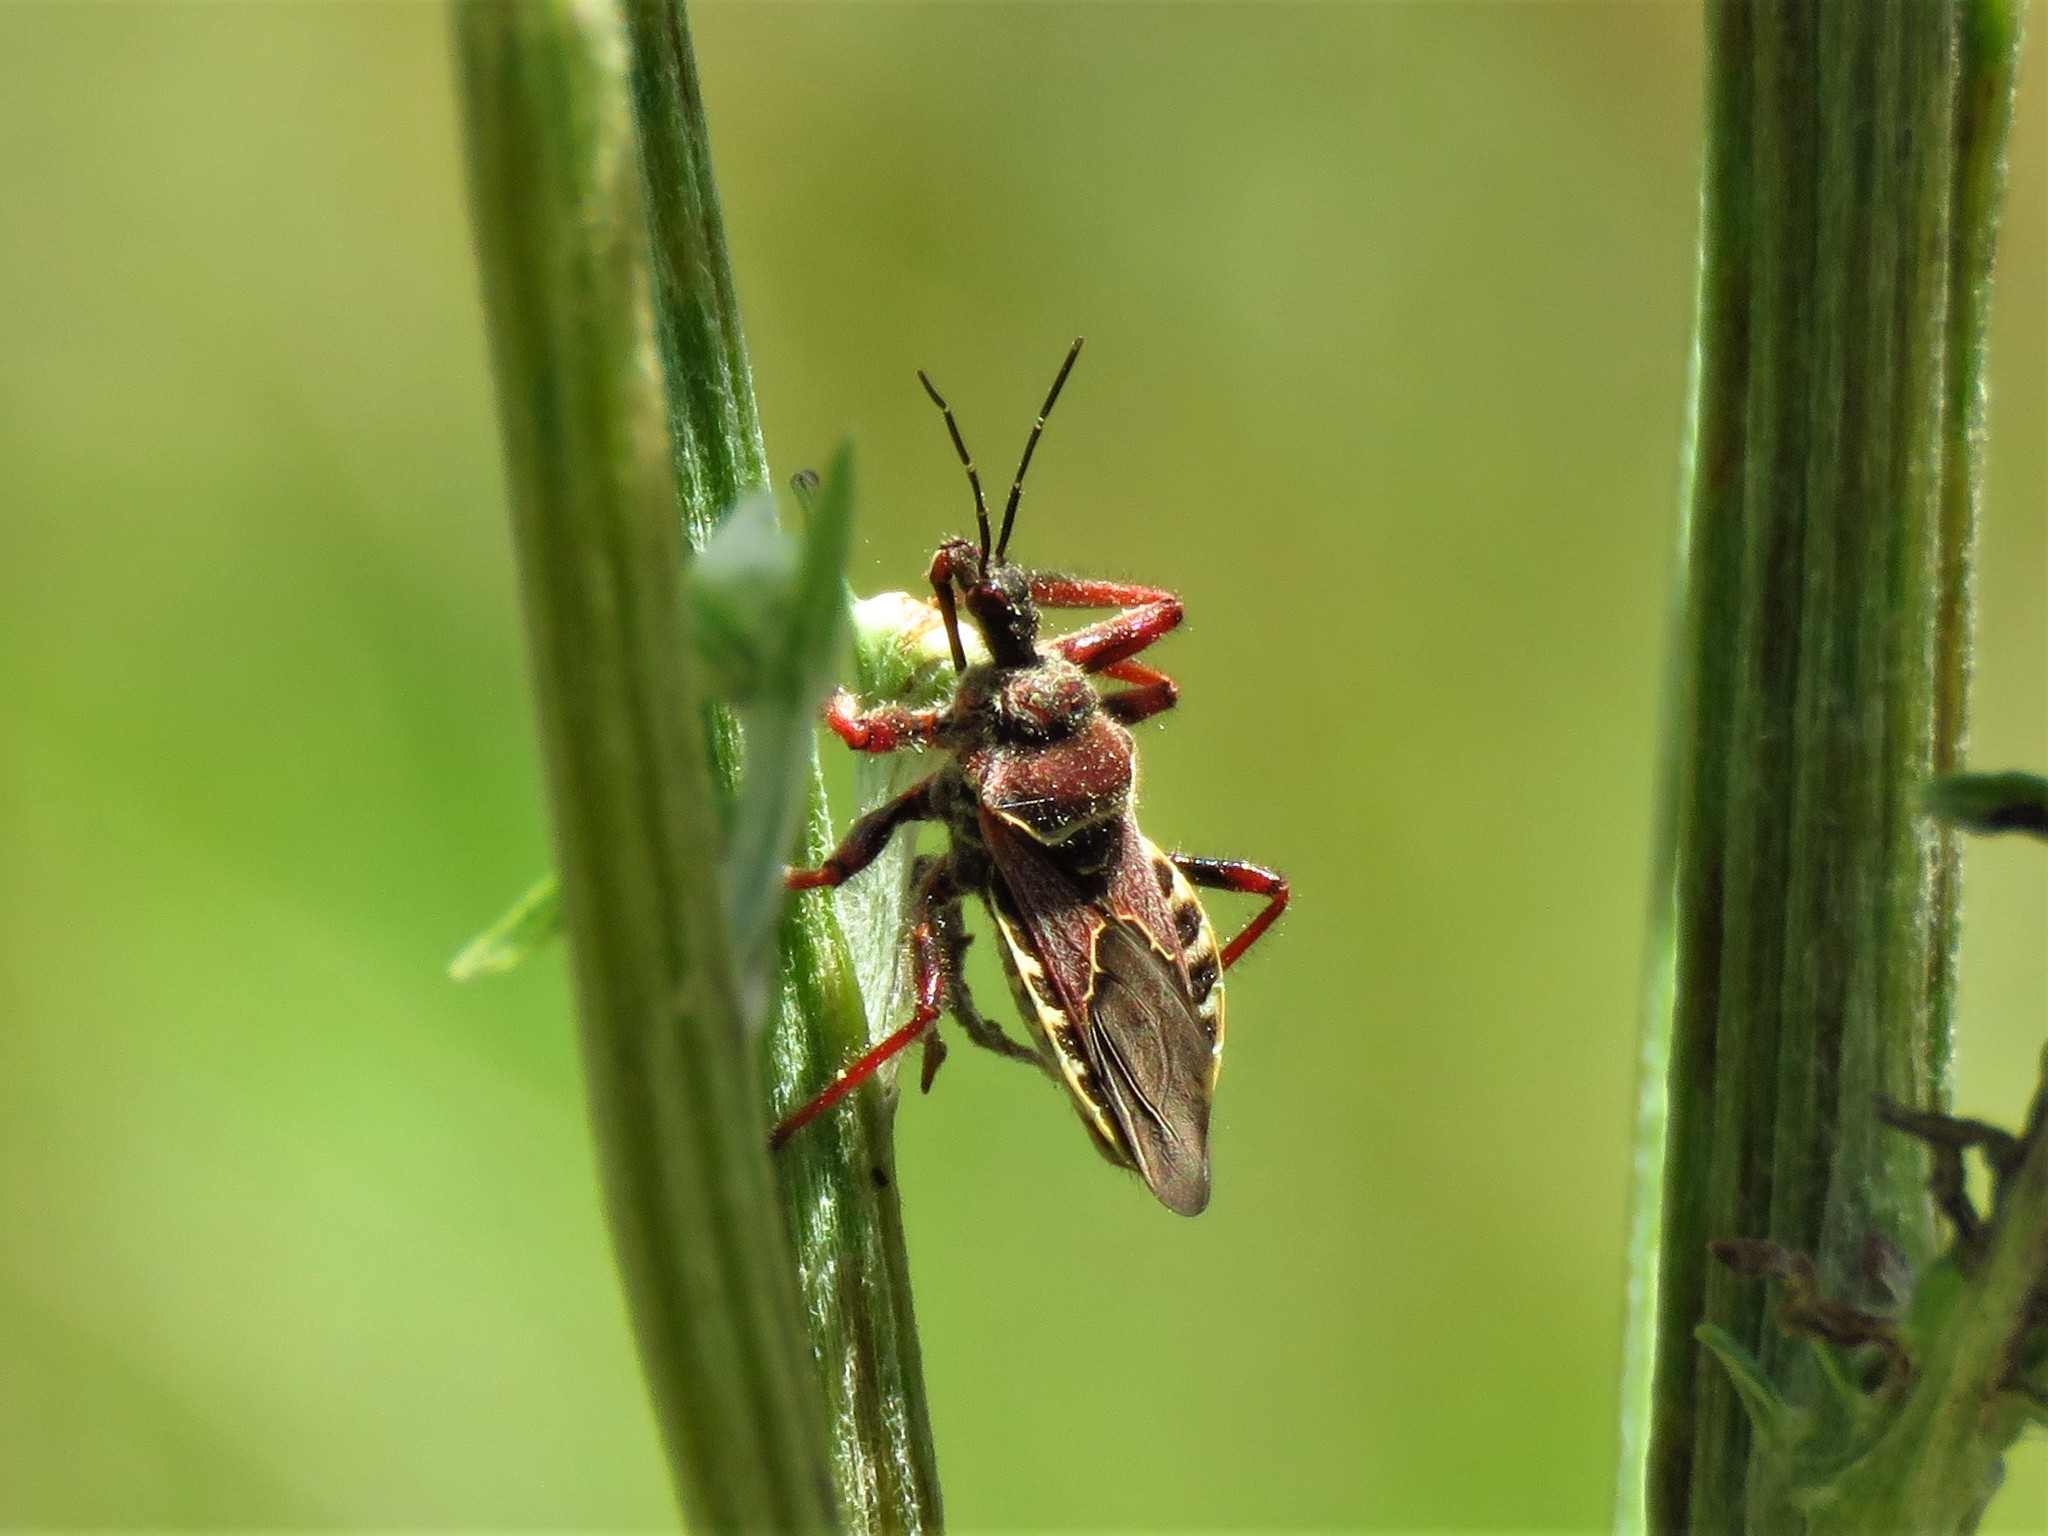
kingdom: Animalia
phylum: Arthropoda
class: Insecta
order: Hemiptera
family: Reduviidae
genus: Apiomerus
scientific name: Apiomerus spissipes
